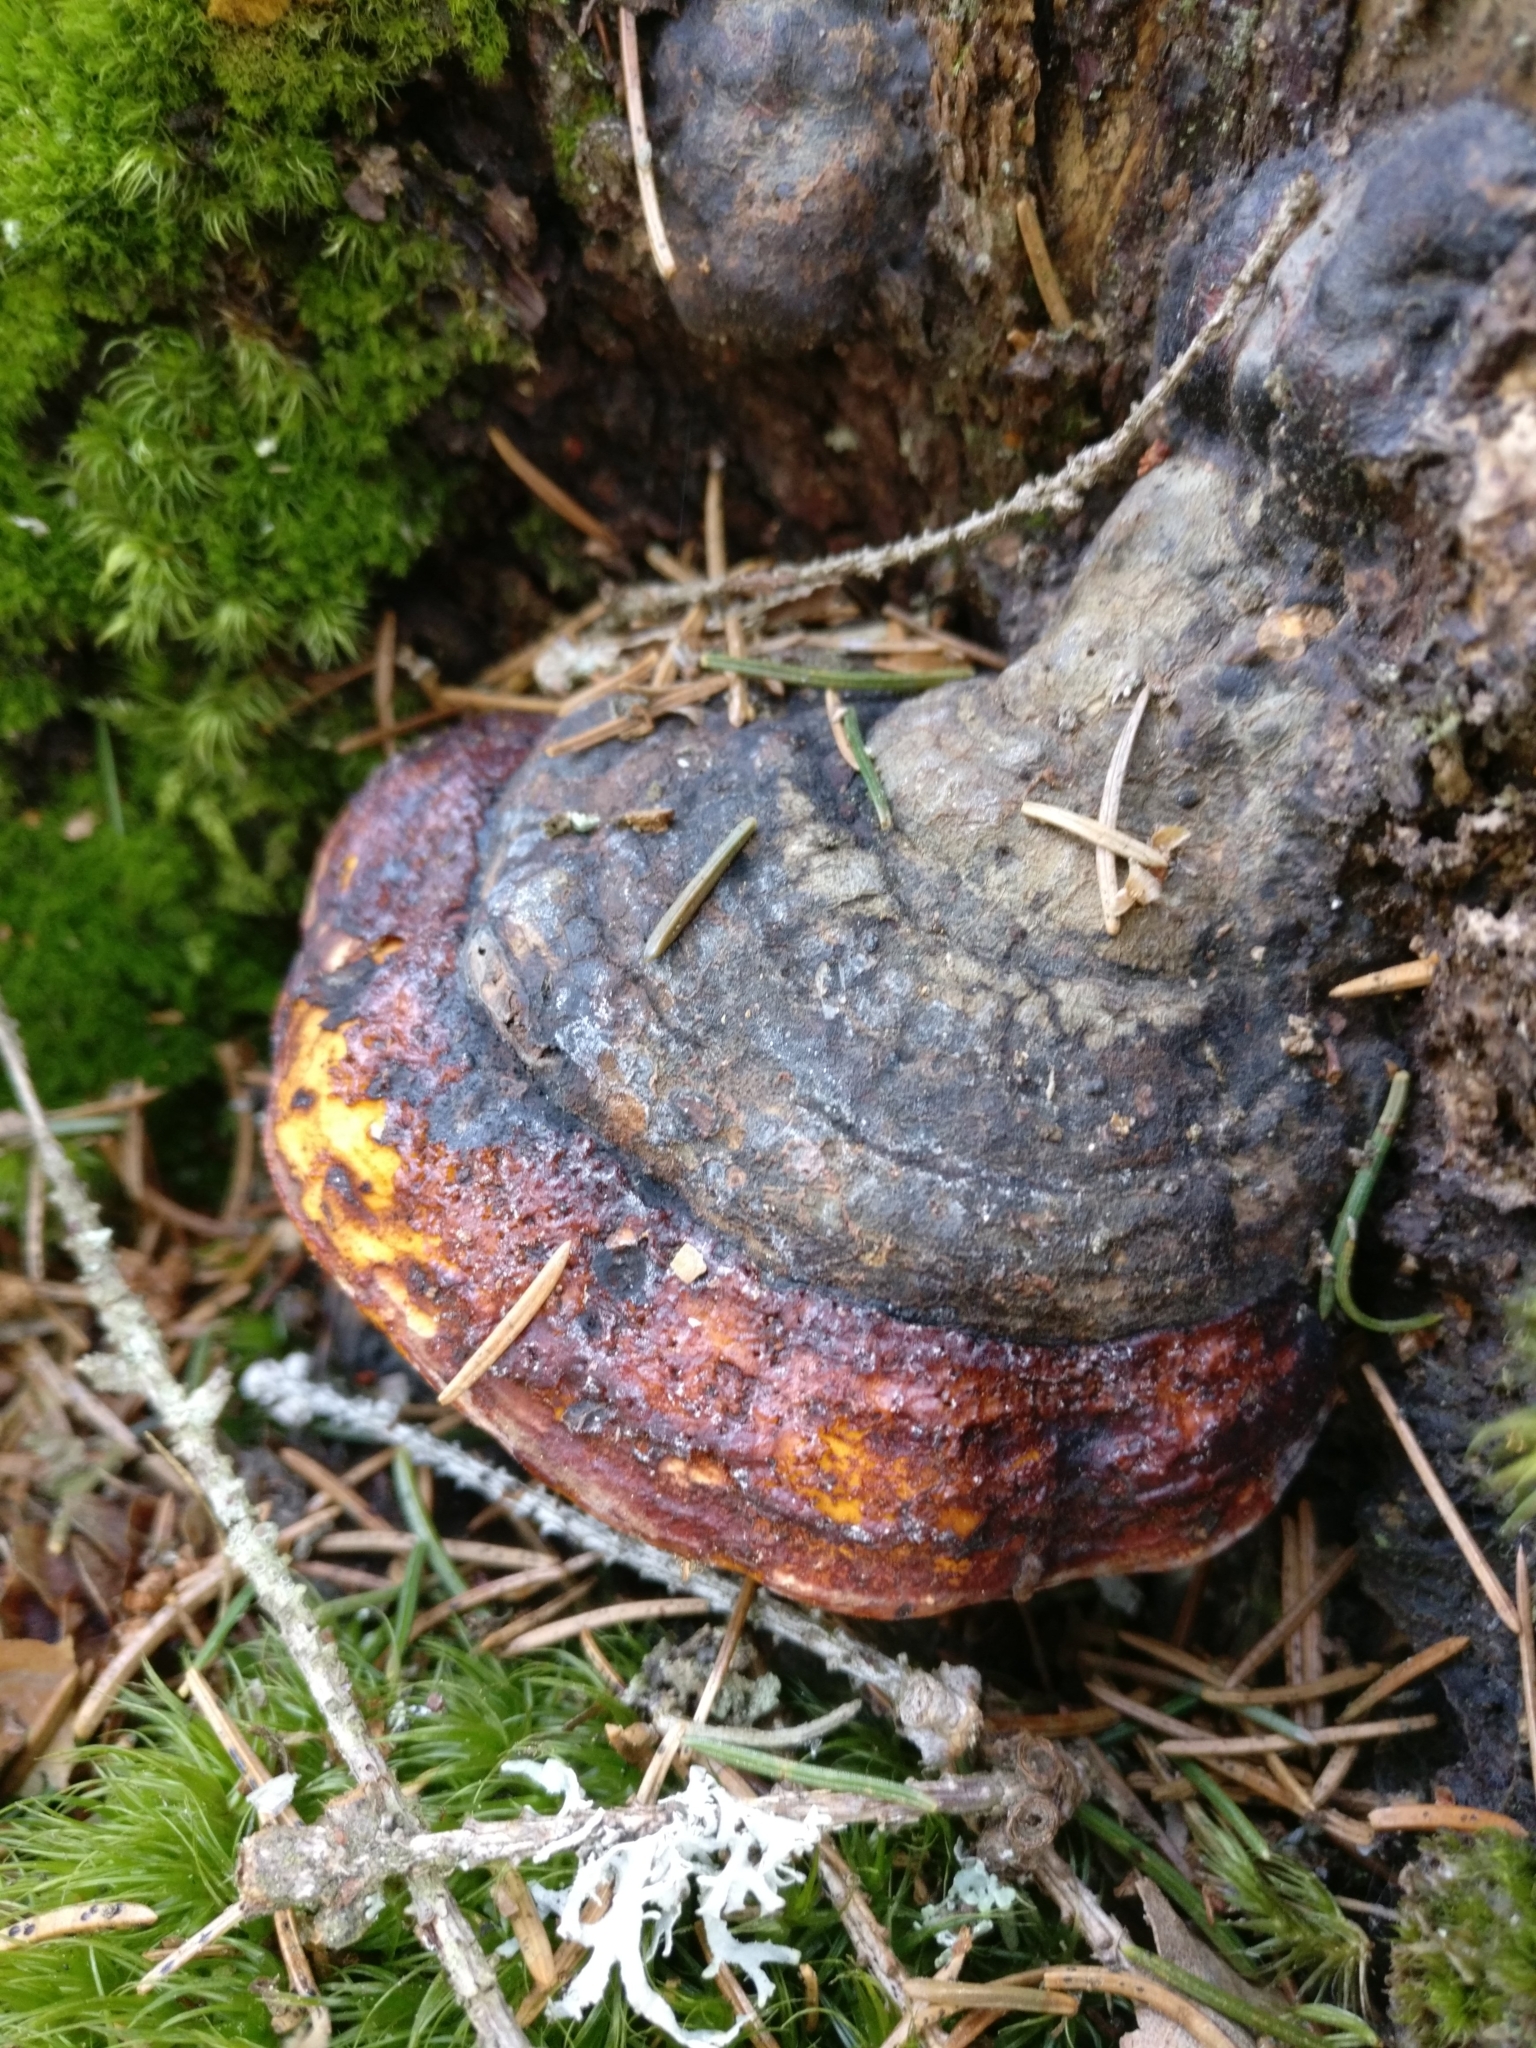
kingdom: Fungi
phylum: Basidiomycota
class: Agaricomycetes
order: Polyporales
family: Fomitopsidaceae
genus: Fomitopsis
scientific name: Fomitopsis pinicola
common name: Red-belted bracket
